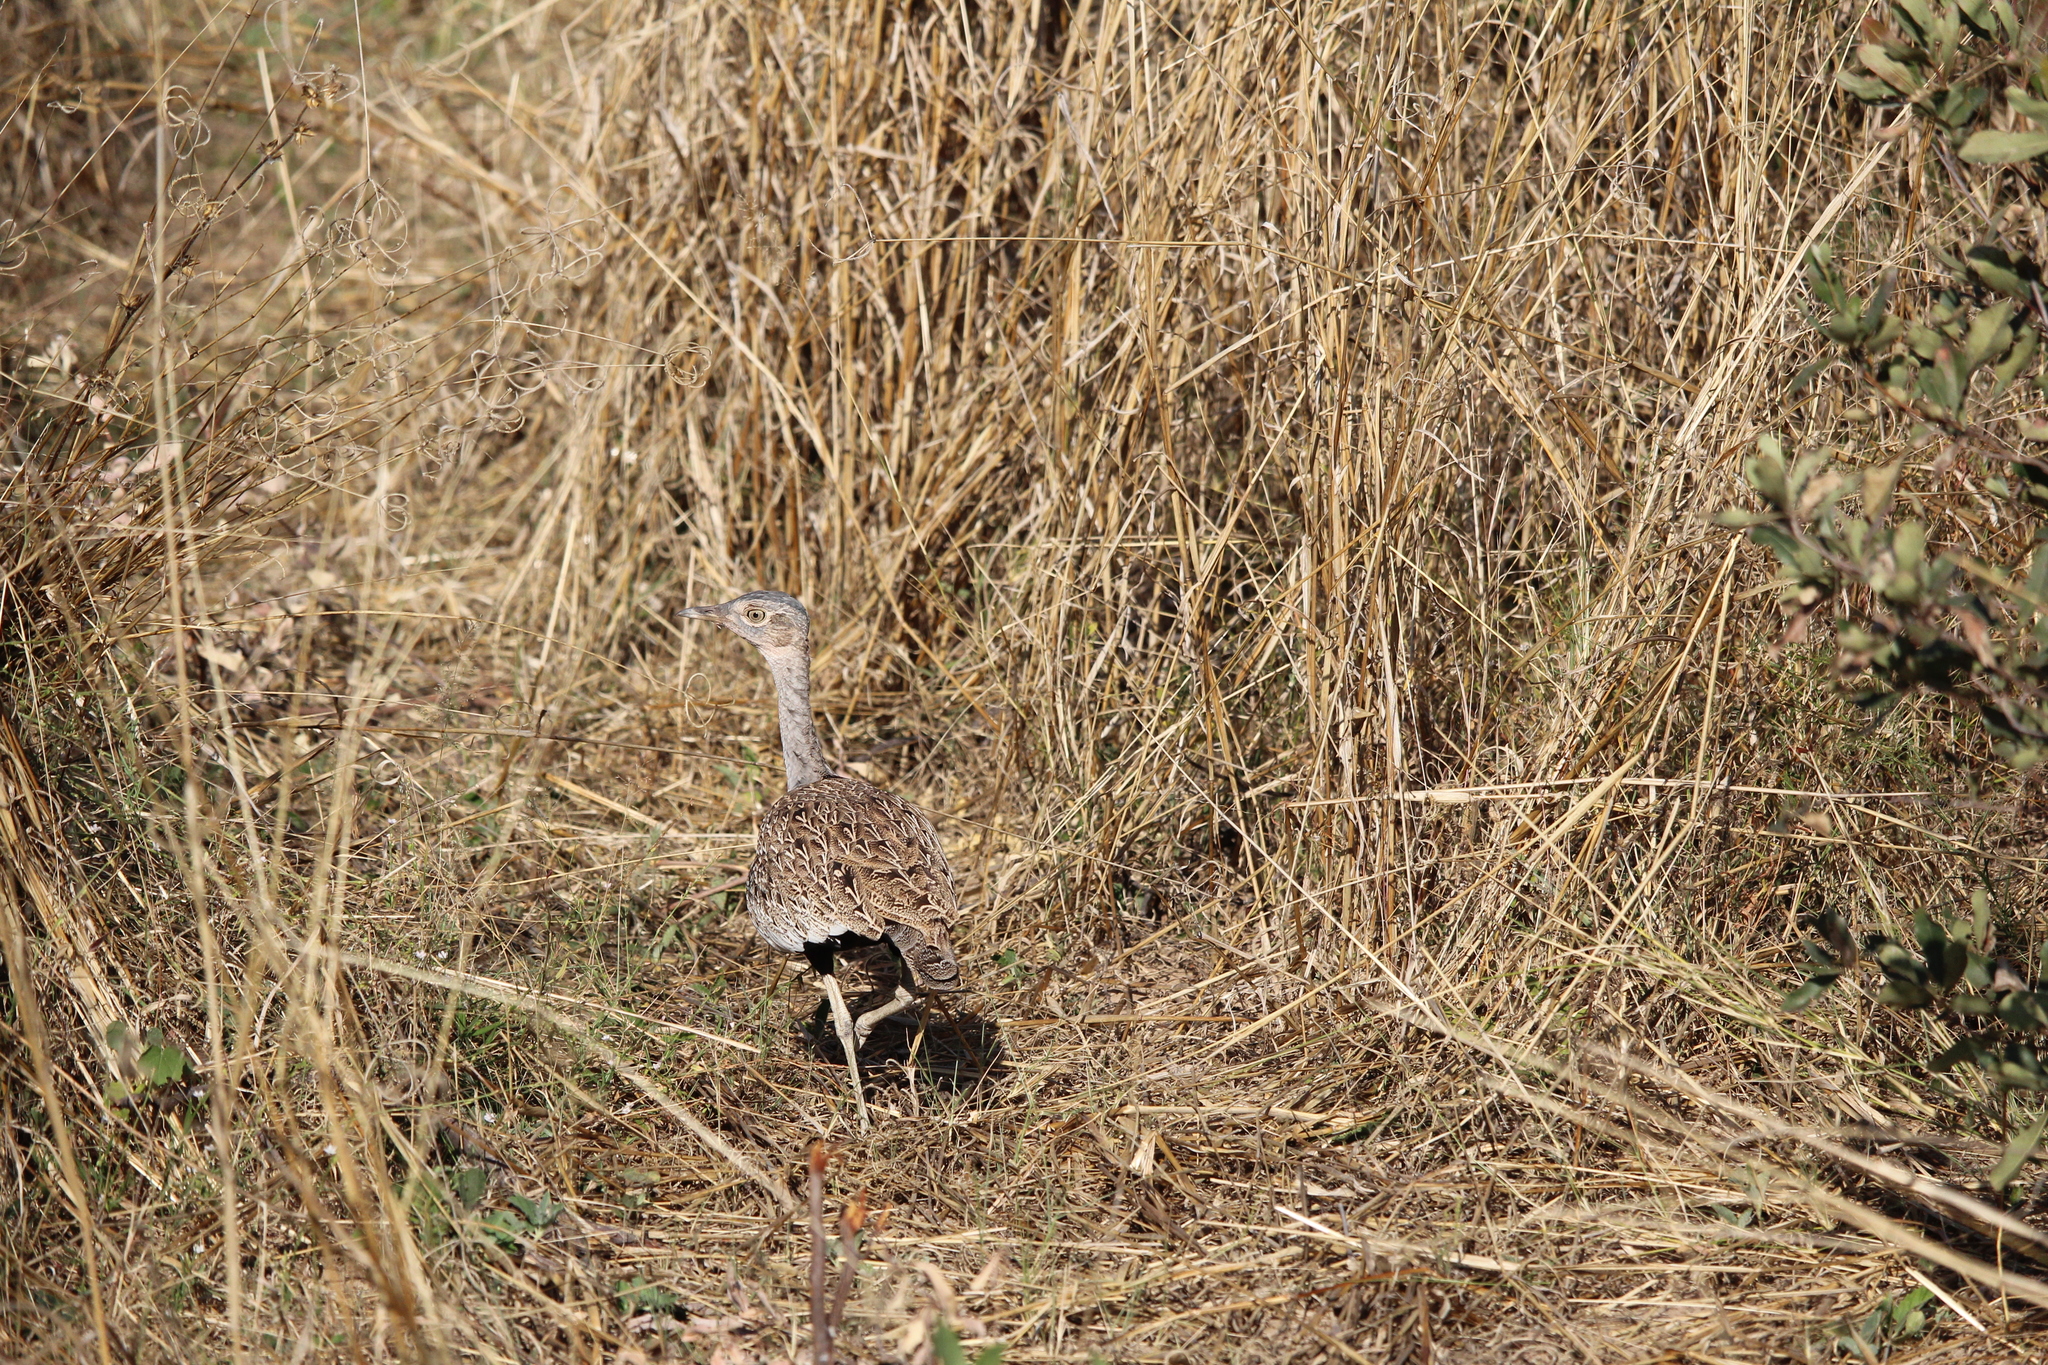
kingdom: Animalia
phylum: Chordata
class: Aves
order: Otidiformes
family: Otididae
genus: Lophotis
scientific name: Lophotis ruficrista
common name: Red-crested korhaan
